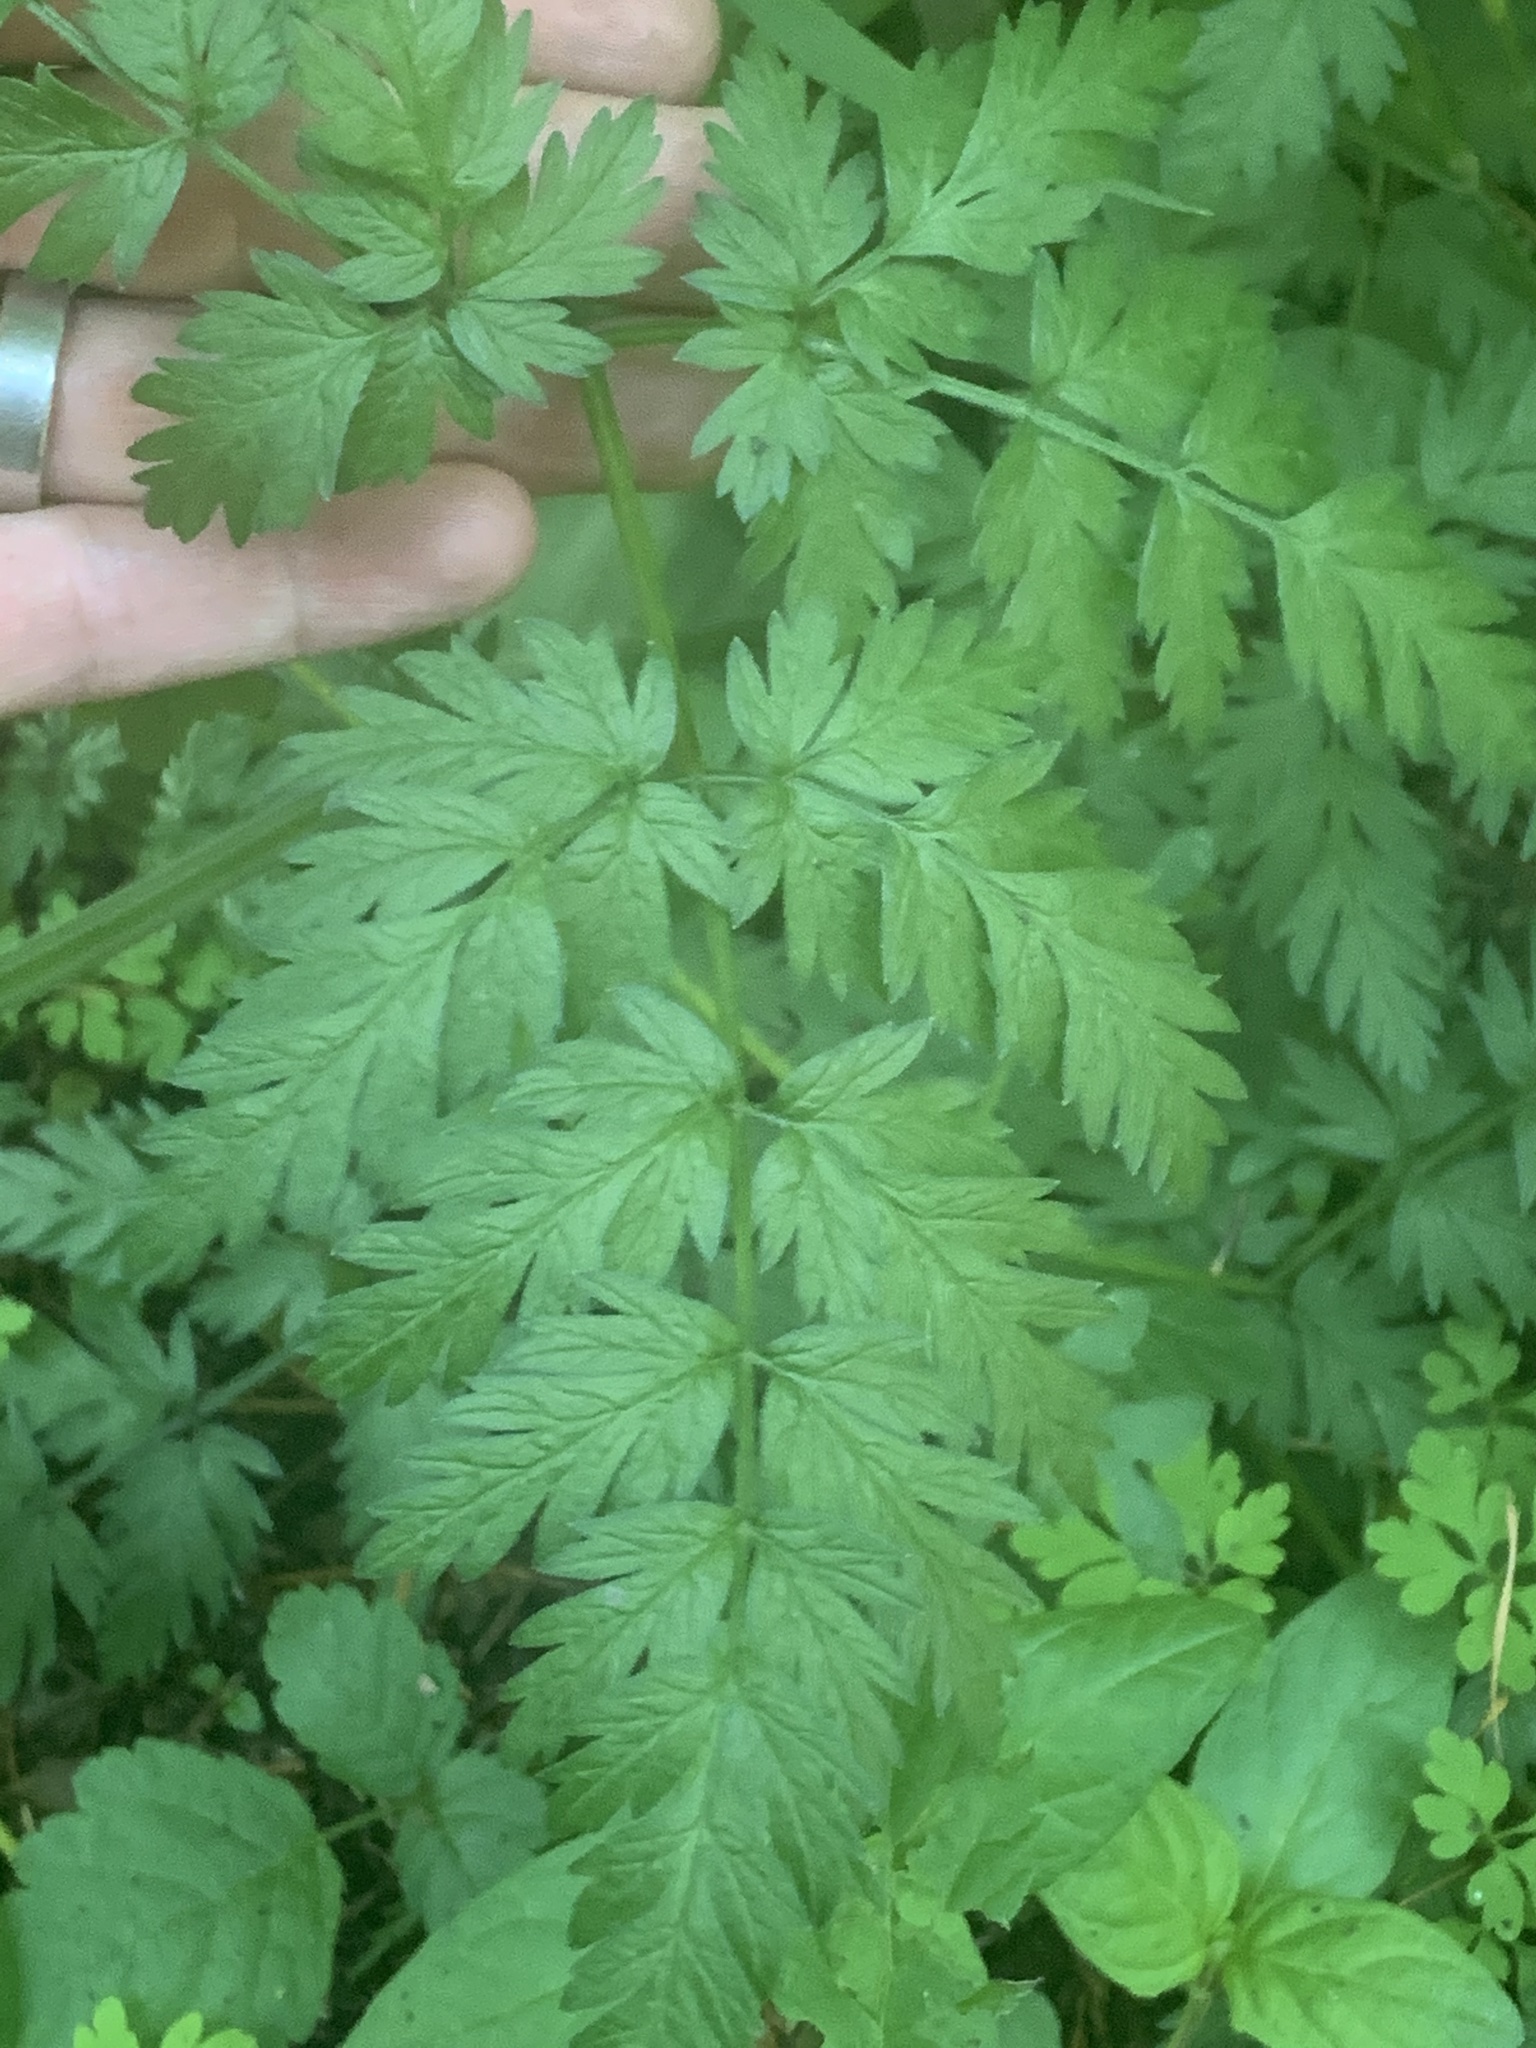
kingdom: Plantae
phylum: Tracheophyta
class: Magnoliopsida
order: Apiales
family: Apiaceae
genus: Anthriscus
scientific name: Anthriscus sylvestris
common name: Cow parsley
